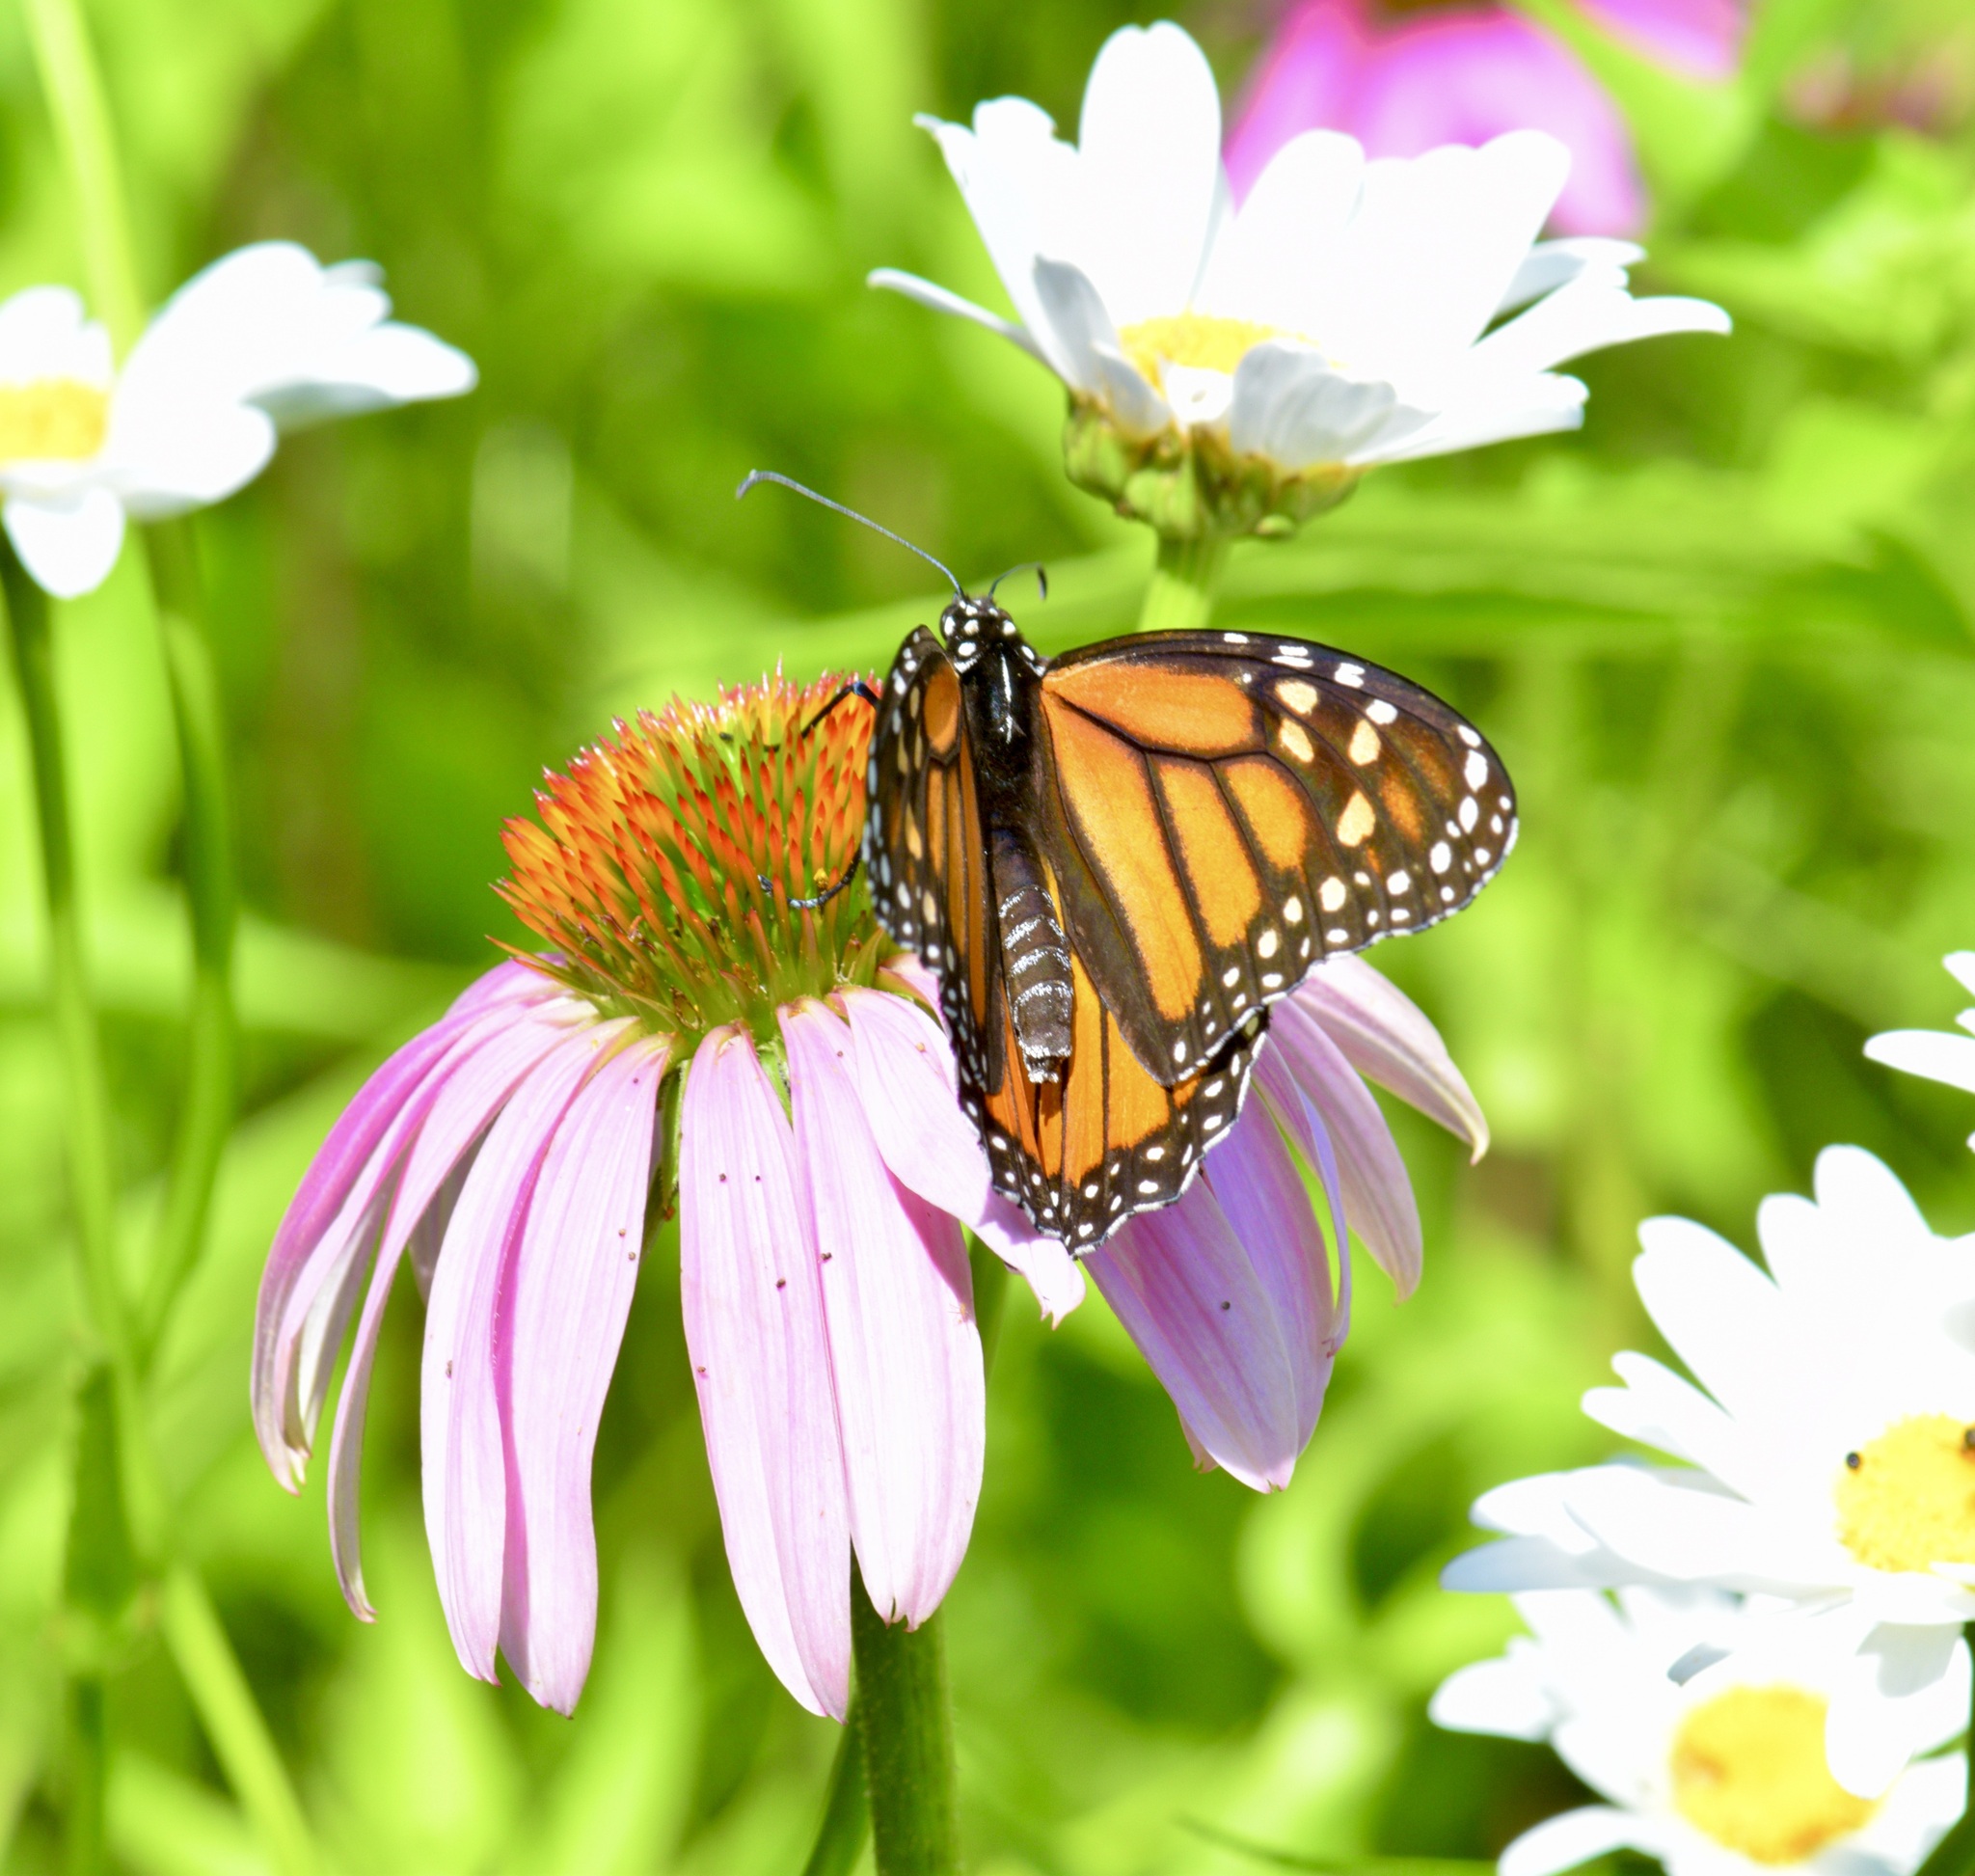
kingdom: Animalia
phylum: Arthropoda
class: Insecta
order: Lepidoptera
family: Nymphalidae
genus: Danaus
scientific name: Danaus plexippus
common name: Monarch
